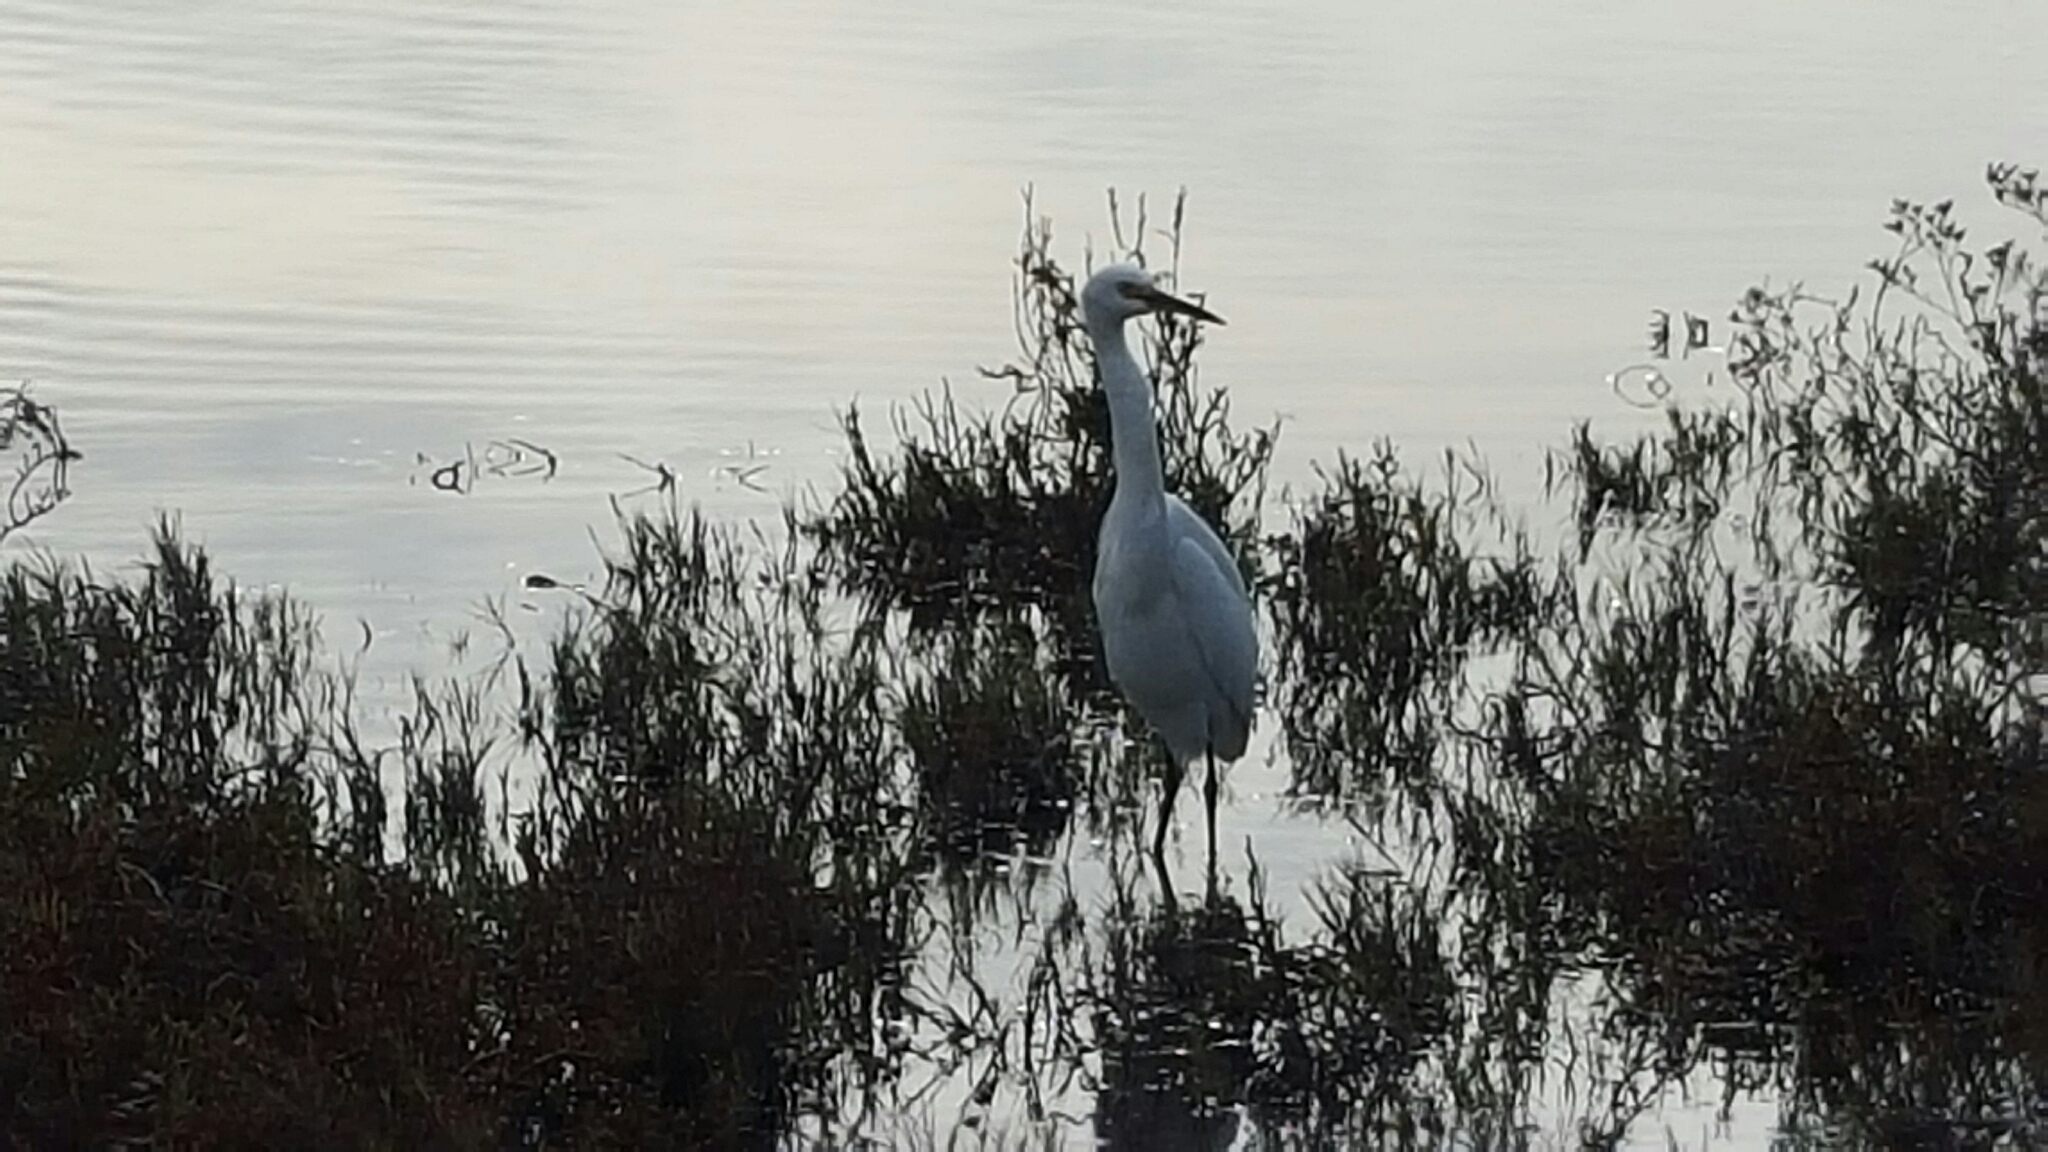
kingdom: Animalia
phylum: Chordata
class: Aves
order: Pelecaniformes
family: Ardeidae
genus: Egretta
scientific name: Egretta thula
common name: Snowy egret
